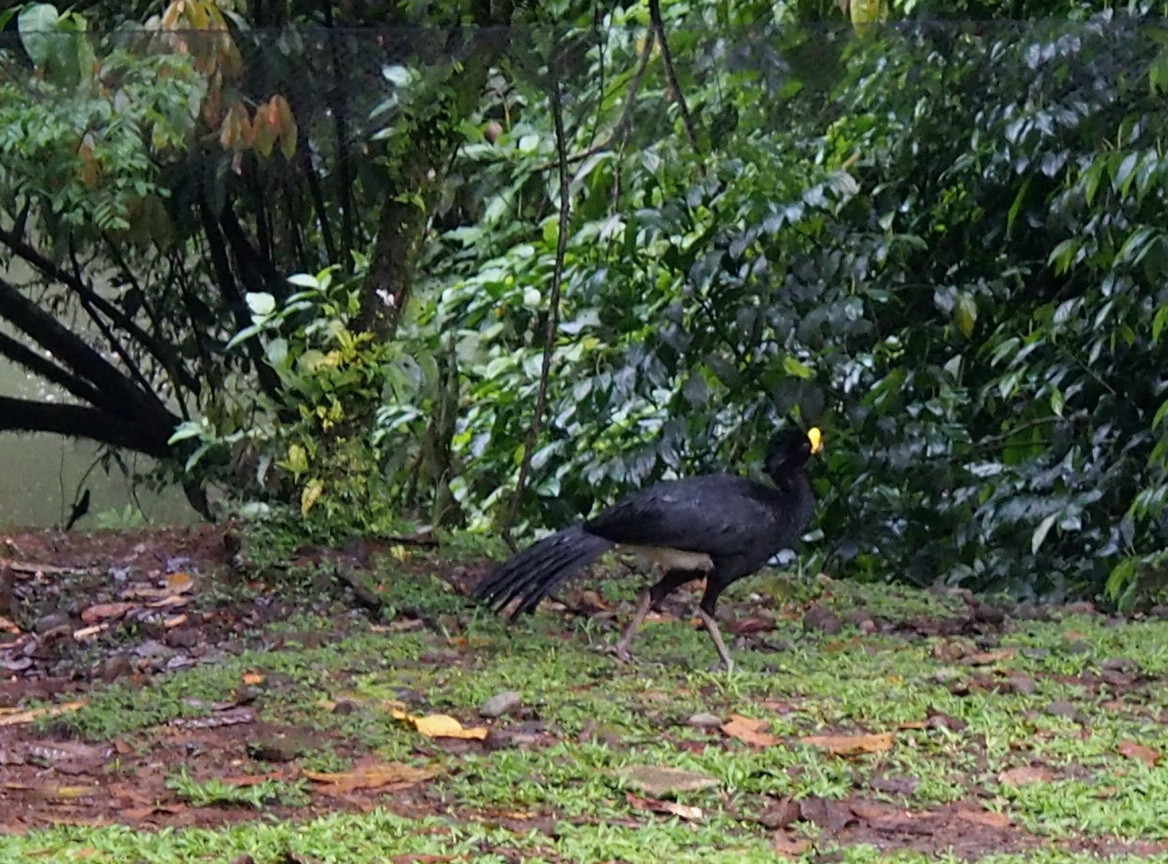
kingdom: Animalia
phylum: Chordata
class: Aves
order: Galliformes
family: Cracidae
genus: Crax
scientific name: Crax rubra
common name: Great curassow
